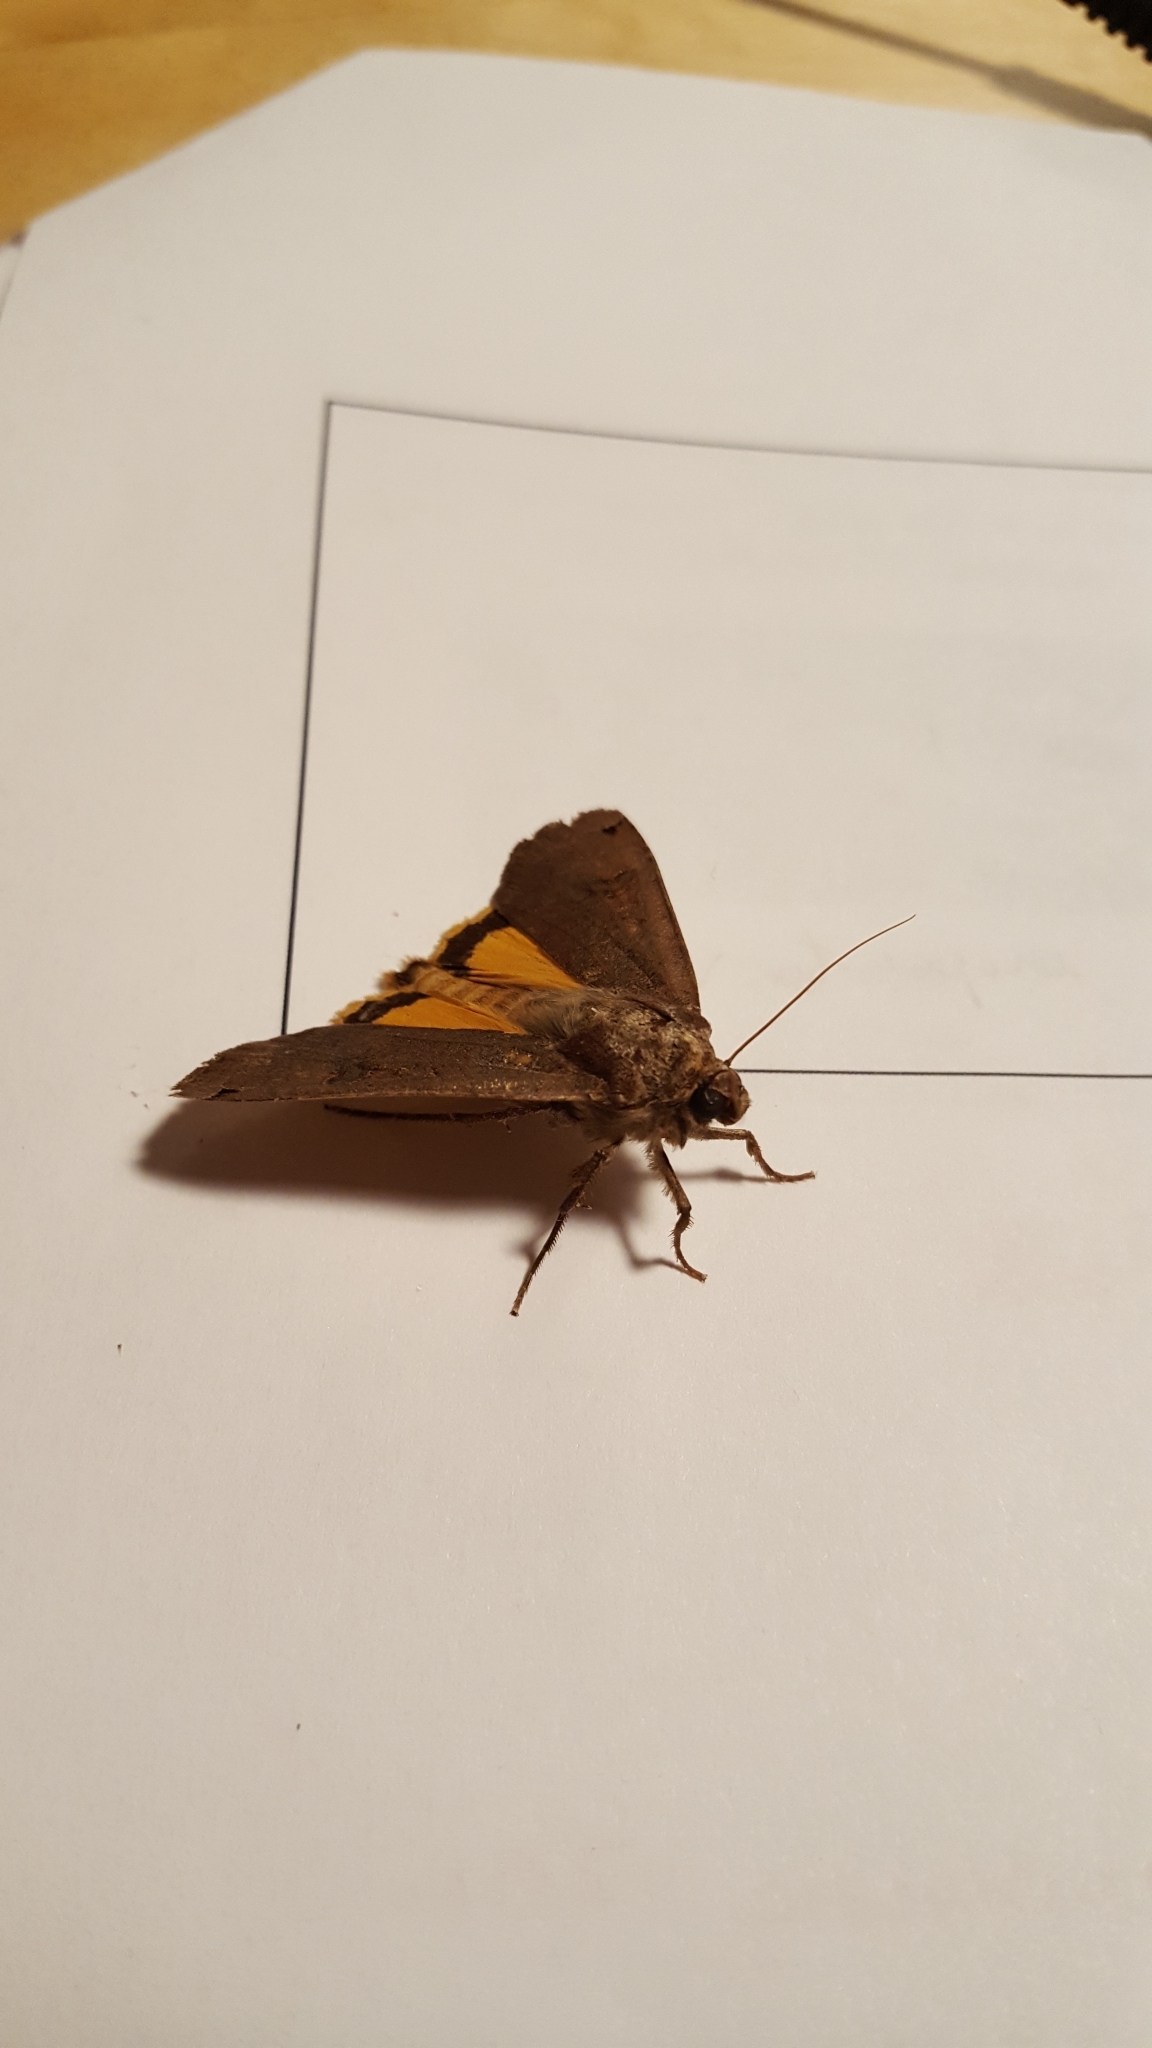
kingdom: Animalia
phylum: Arthropoda
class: Insecta
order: Lepidoptera
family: Noctuidae
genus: Noctua
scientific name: Noctua pronuba
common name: Large yellow underwing
